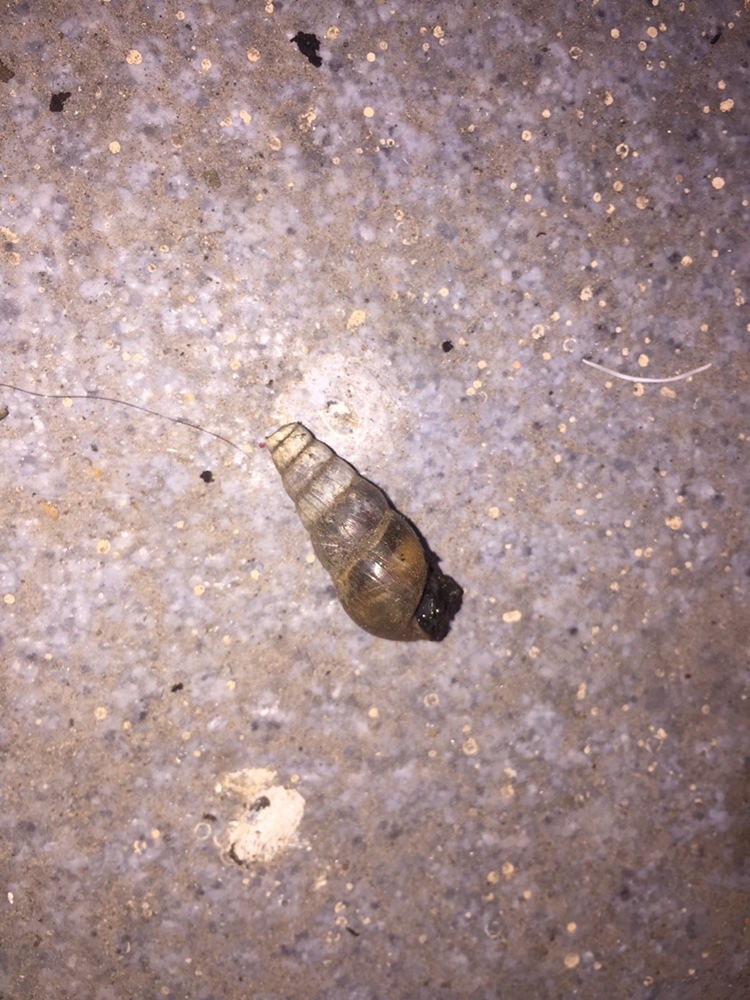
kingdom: Animalia
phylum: Mollusca
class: Gastropoda
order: Stylommatophora
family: Achatinidae
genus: Rumina
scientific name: Rumina decollata
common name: Decollate snail
